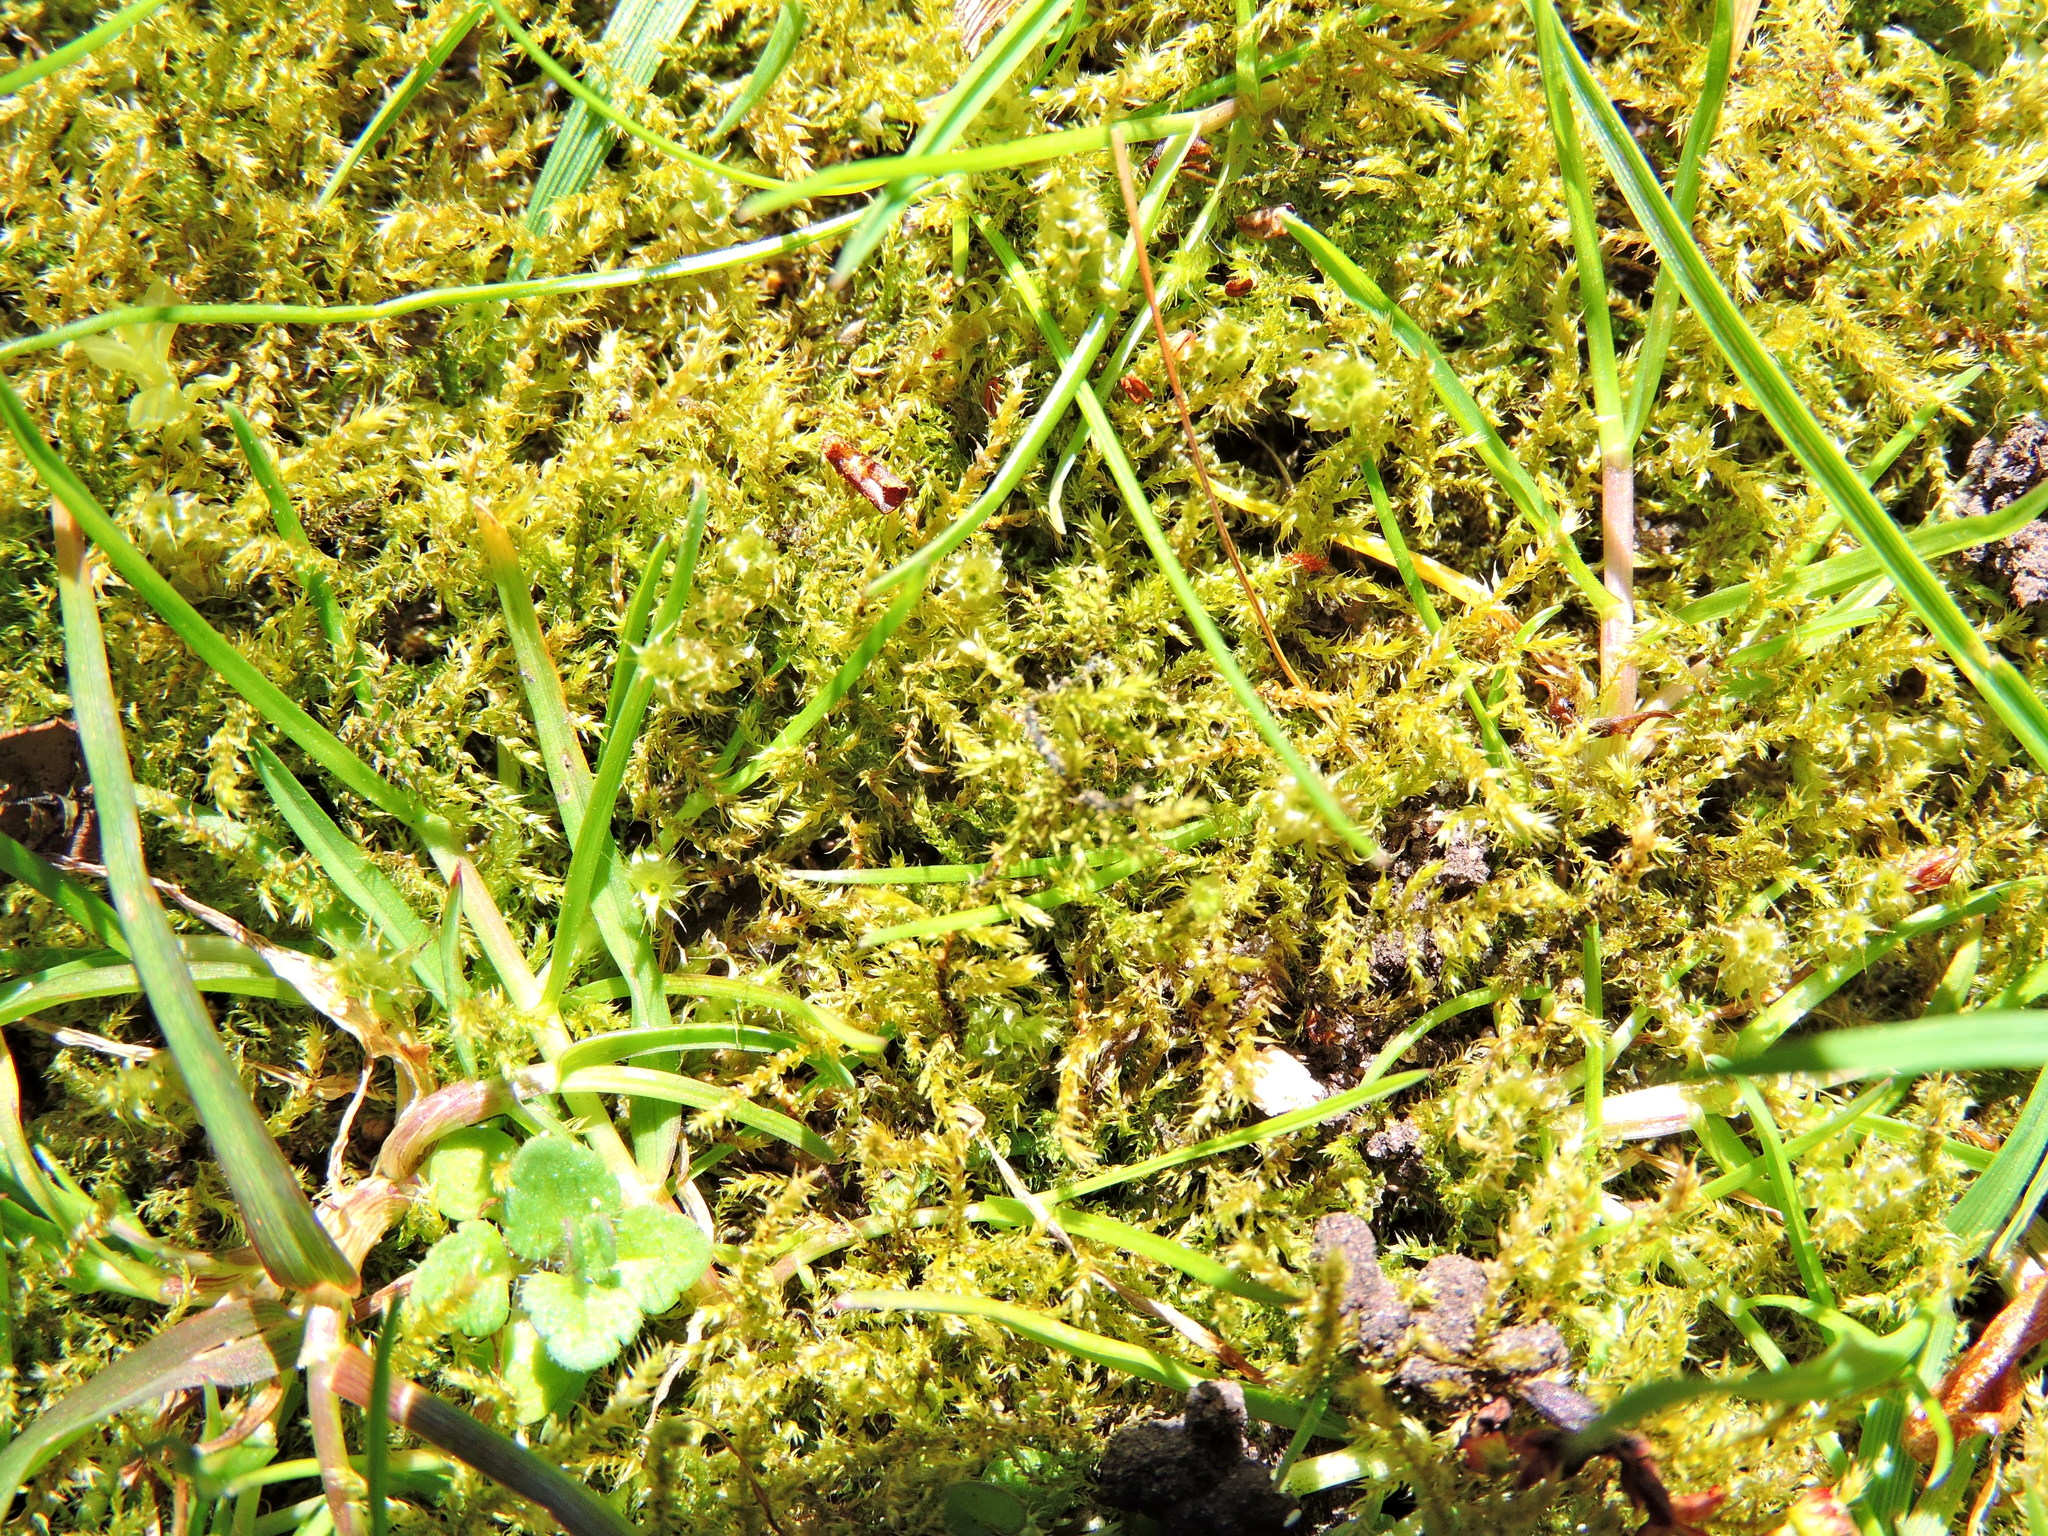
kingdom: Plantae
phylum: Bryophyta
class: Bryopsida
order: Hypnales
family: Hylocomiaceae
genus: Rhytidiadelphus
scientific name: Rhytidiadelphus squarrosus
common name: Springy turf-moss
